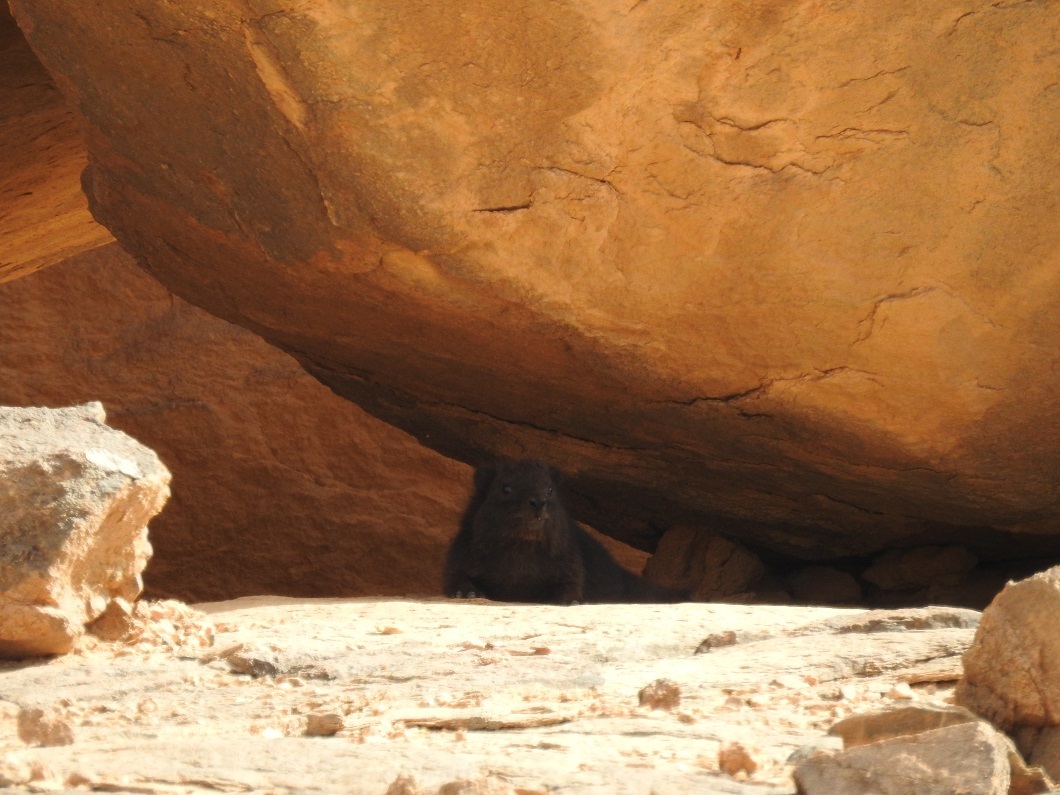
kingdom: Animalia
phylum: Chordata
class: Mammalia
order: Hyracoidea
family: Procaviidae
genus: Procavia
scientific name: Procavia capensis
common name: Rock hyrax
